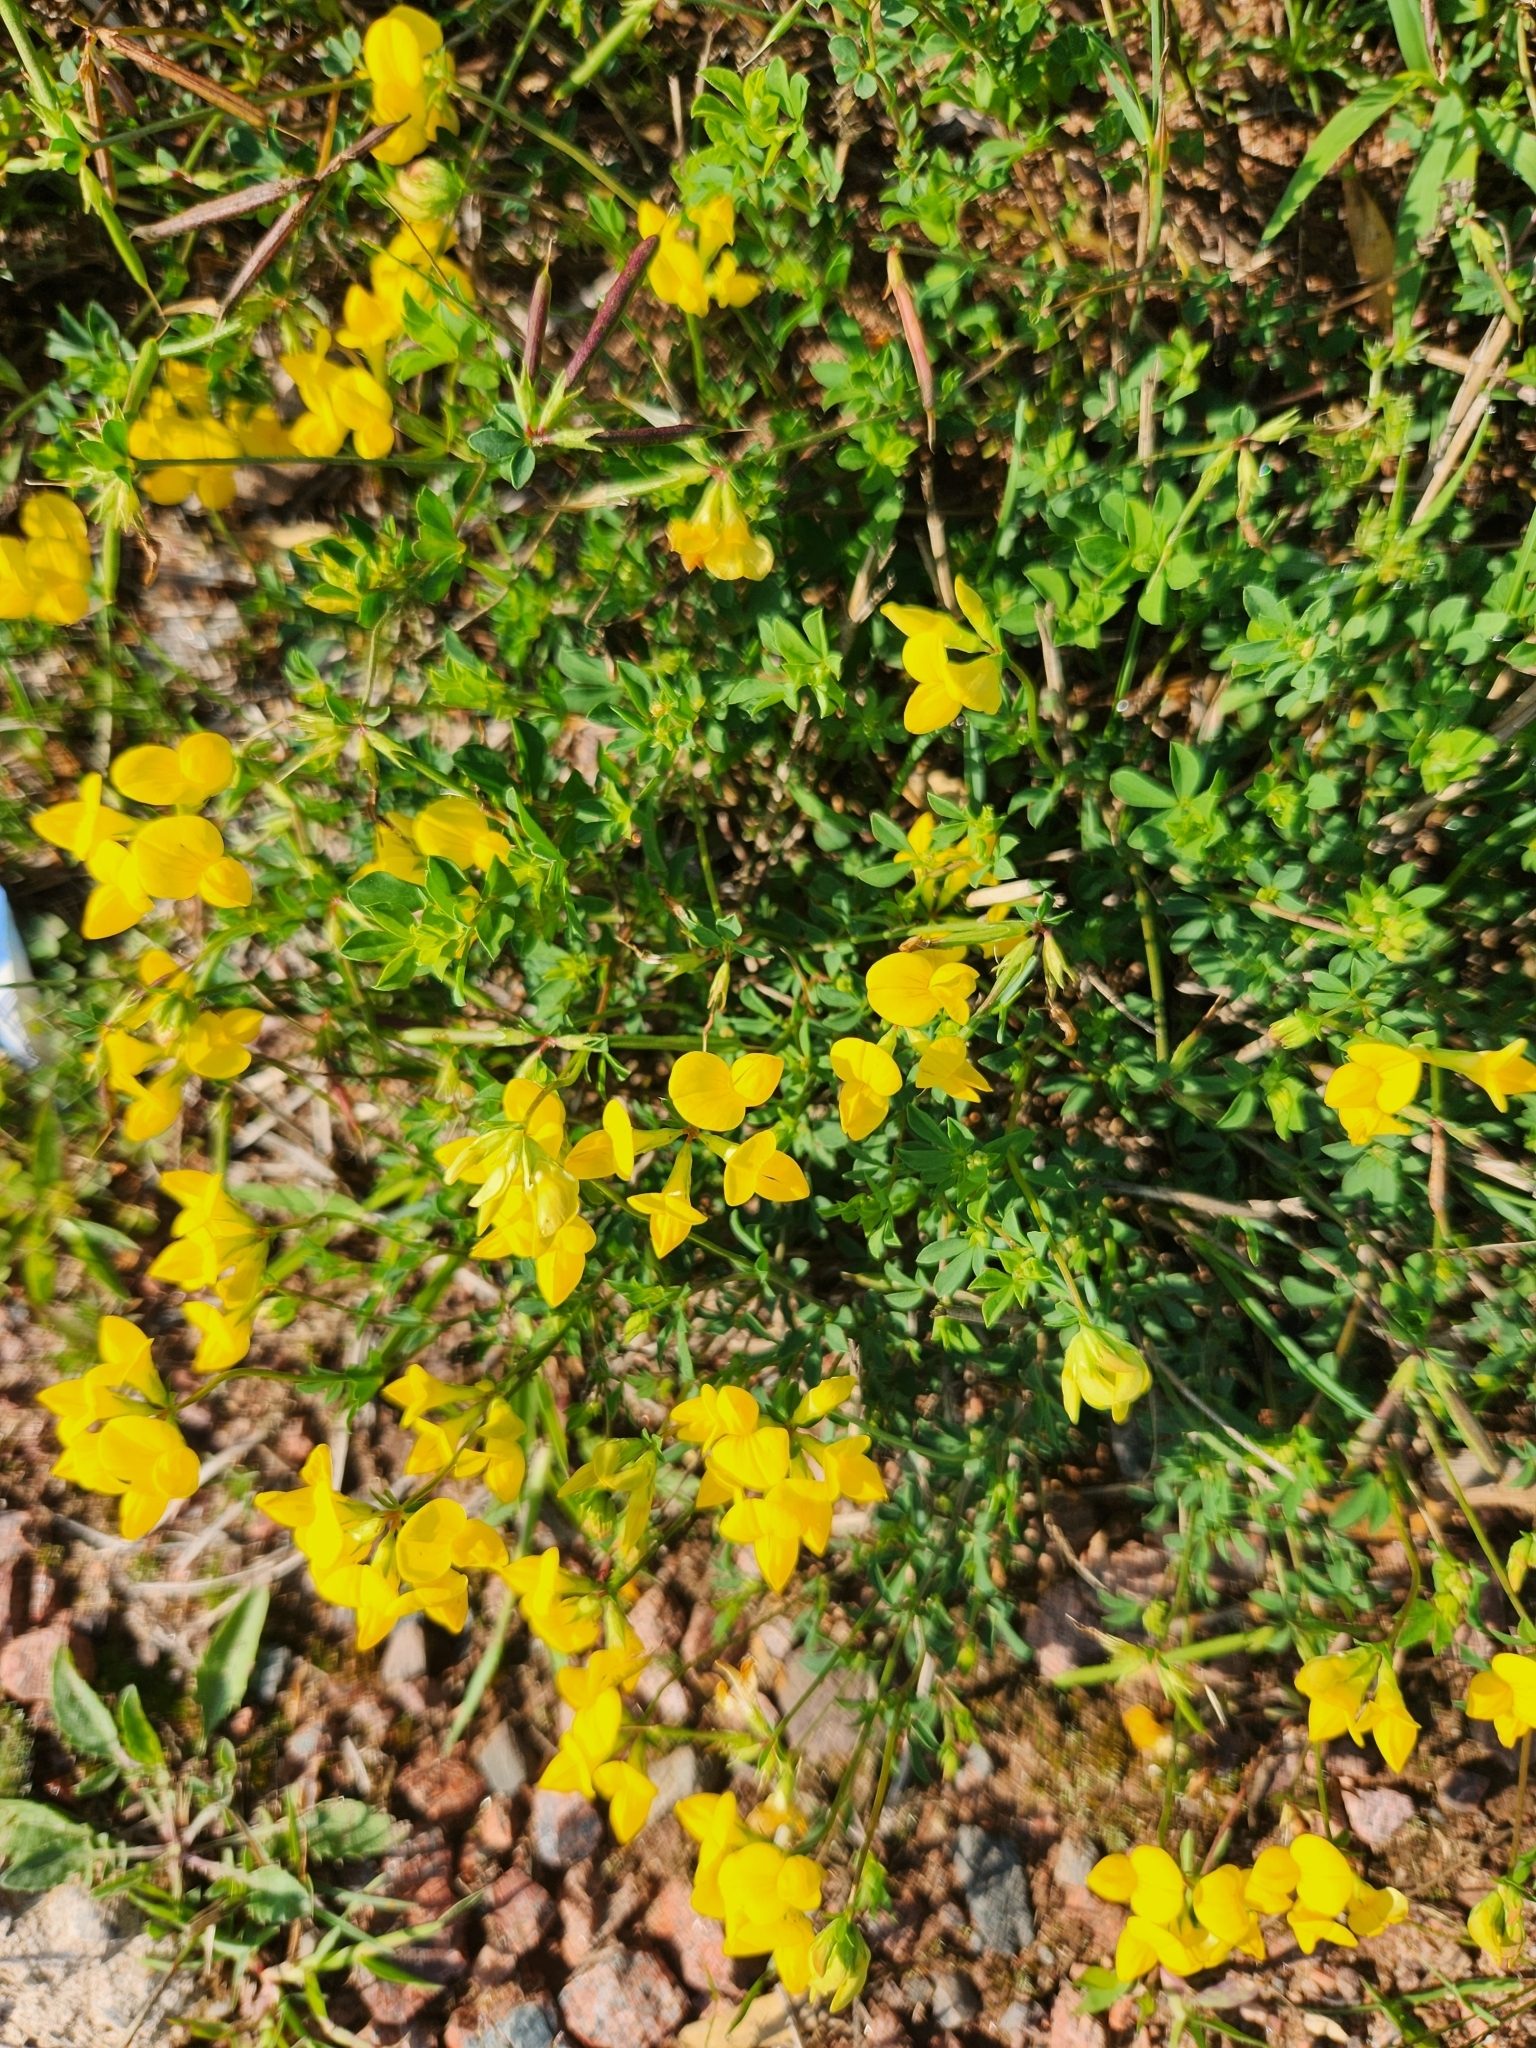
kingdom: Plantae
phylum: Tracheophyta
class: Magnoliopsida
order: Fabales
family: Fabaceae
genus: Lotus
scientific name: Lotus corniculatus
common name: Common bird's-foot-trefoil
